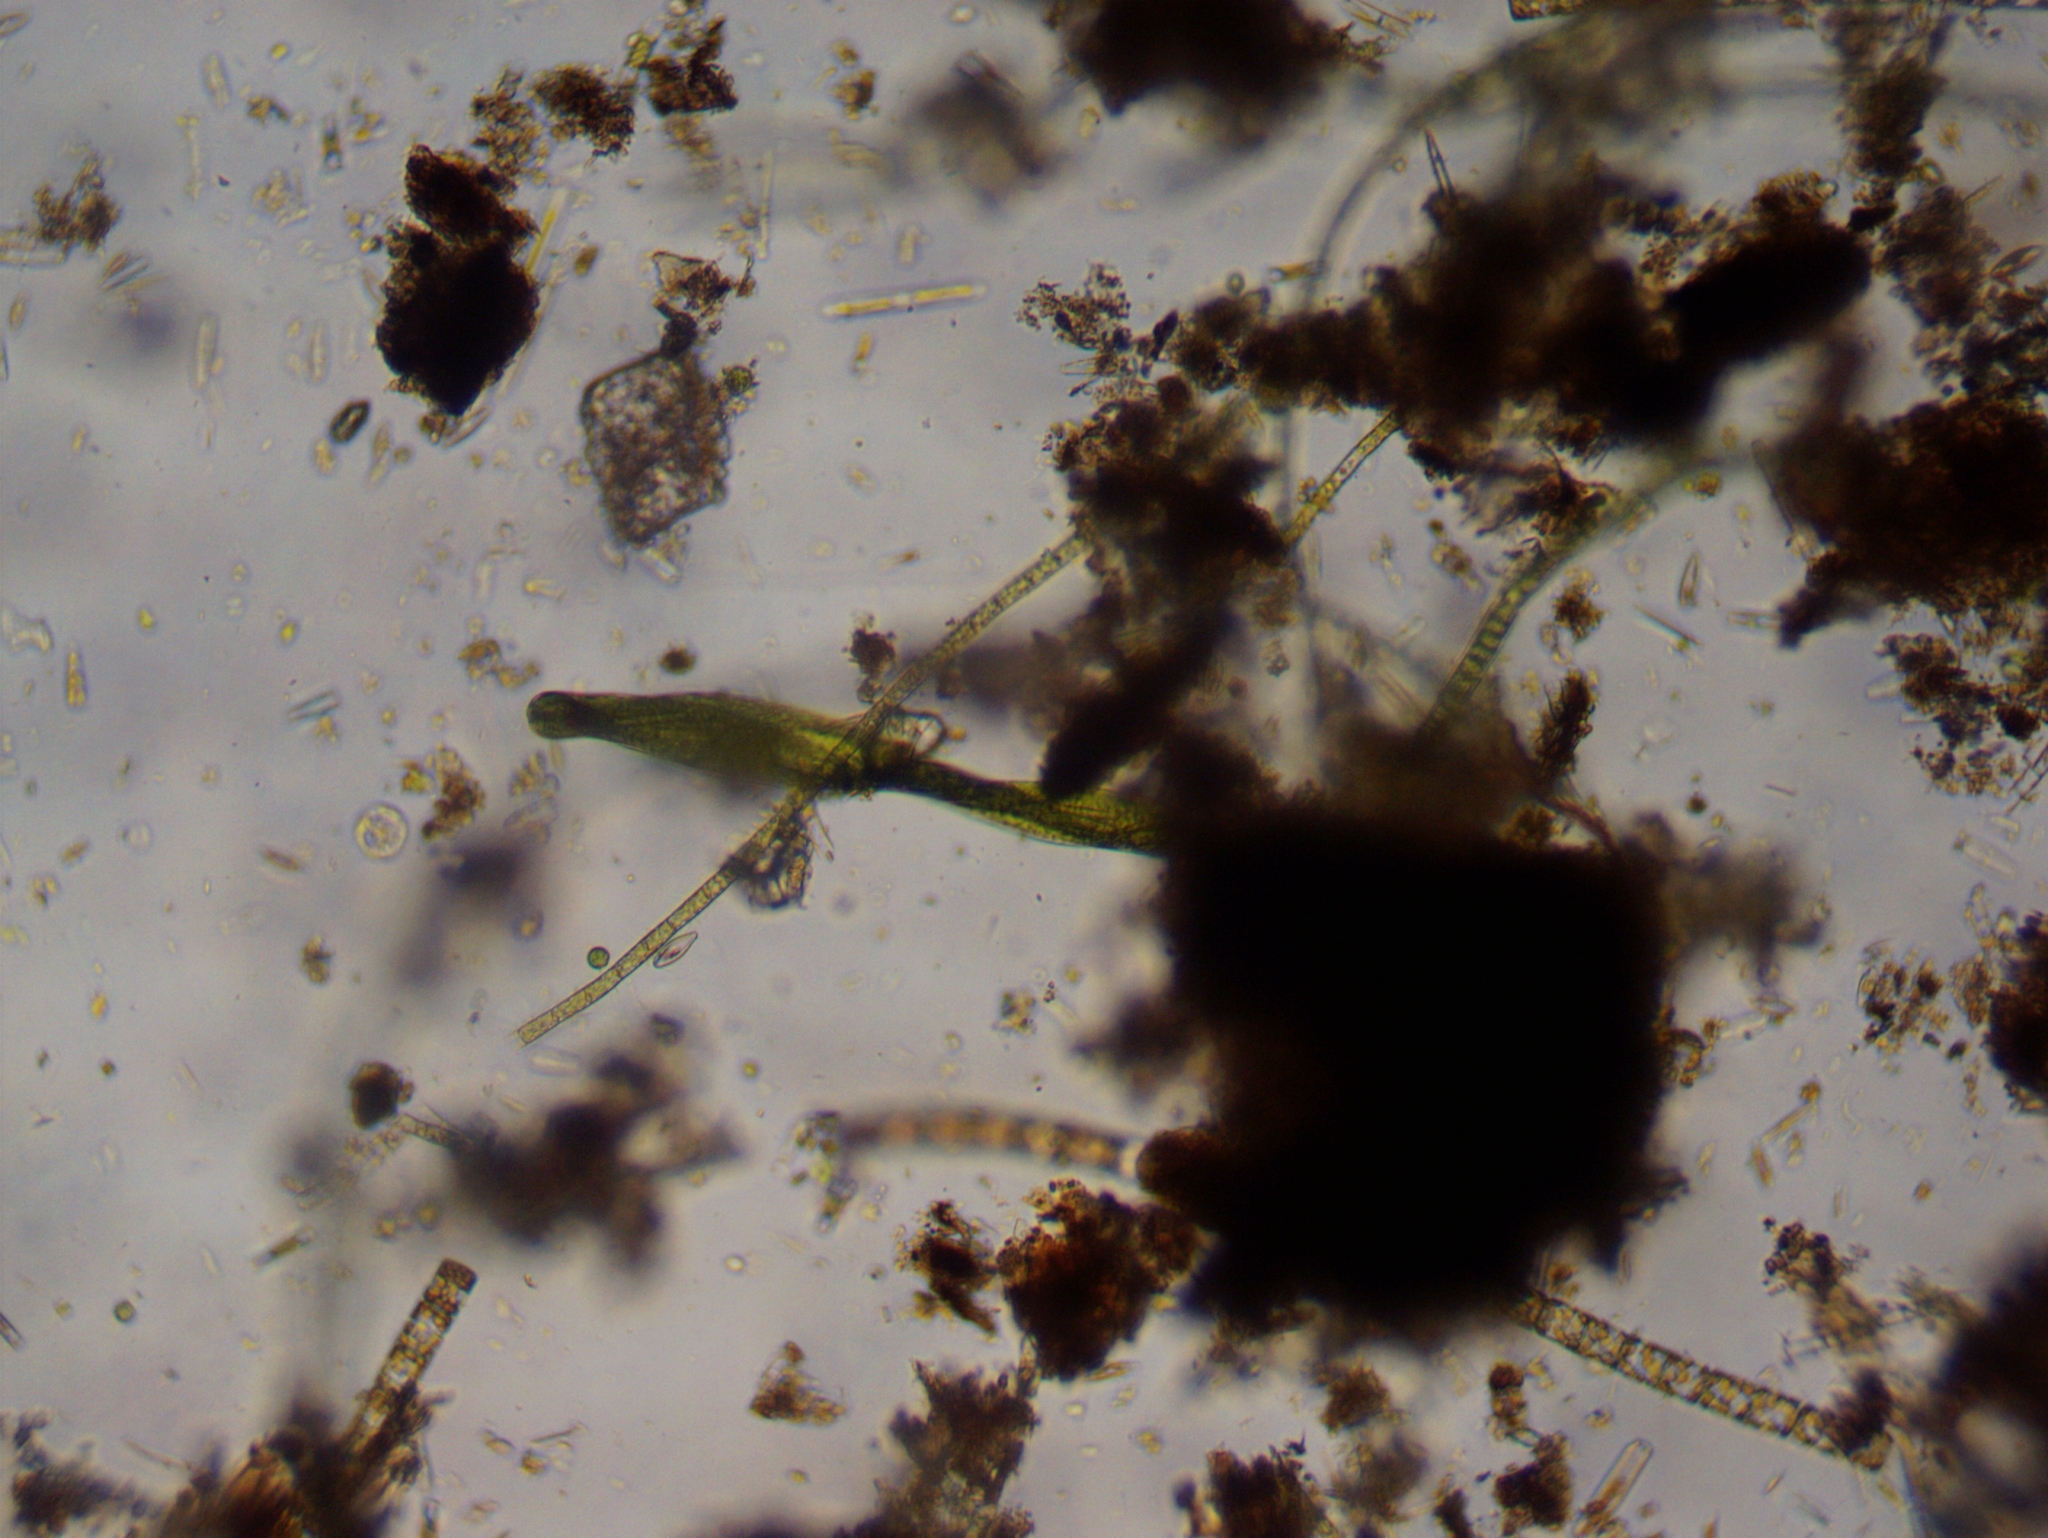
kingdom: Protozoa
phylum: Euglenozoa
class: Euglenoidea
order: Euglenida
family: Phacidae
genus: Lepocinclis
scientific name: Lepocinclis helicoidea
